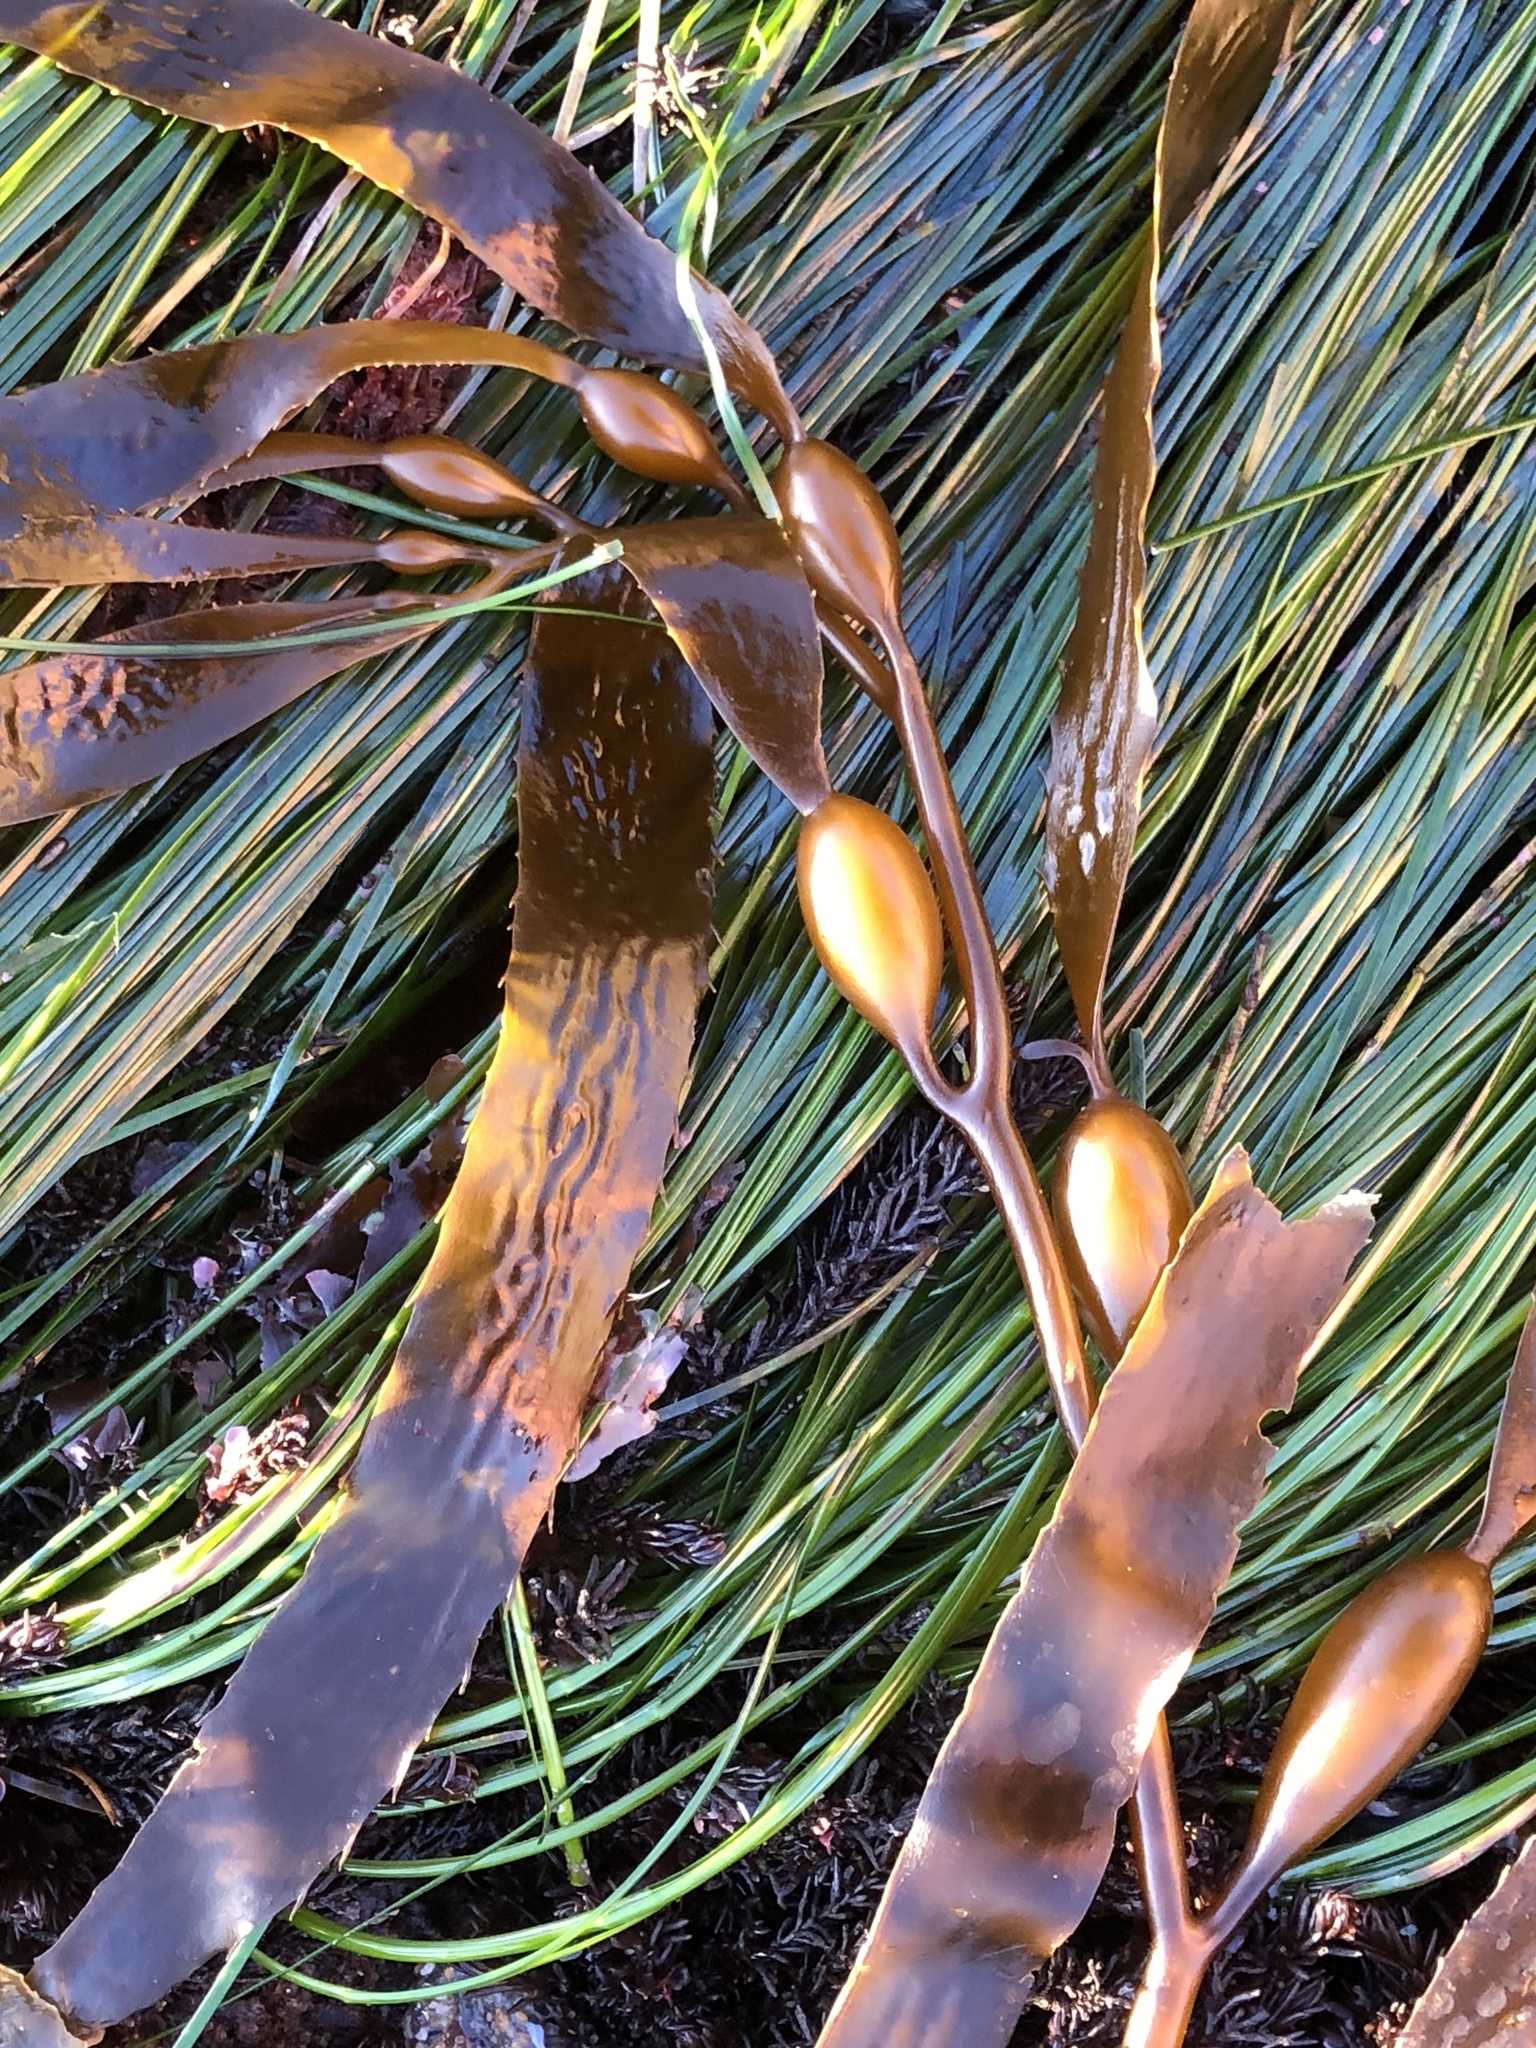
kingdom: Chromista
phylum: Ochrophyta
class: Phaeophyceae
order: Laminariales
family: Laminariaceae
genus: Macrocystis
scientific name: Macrocystis pyrifera
